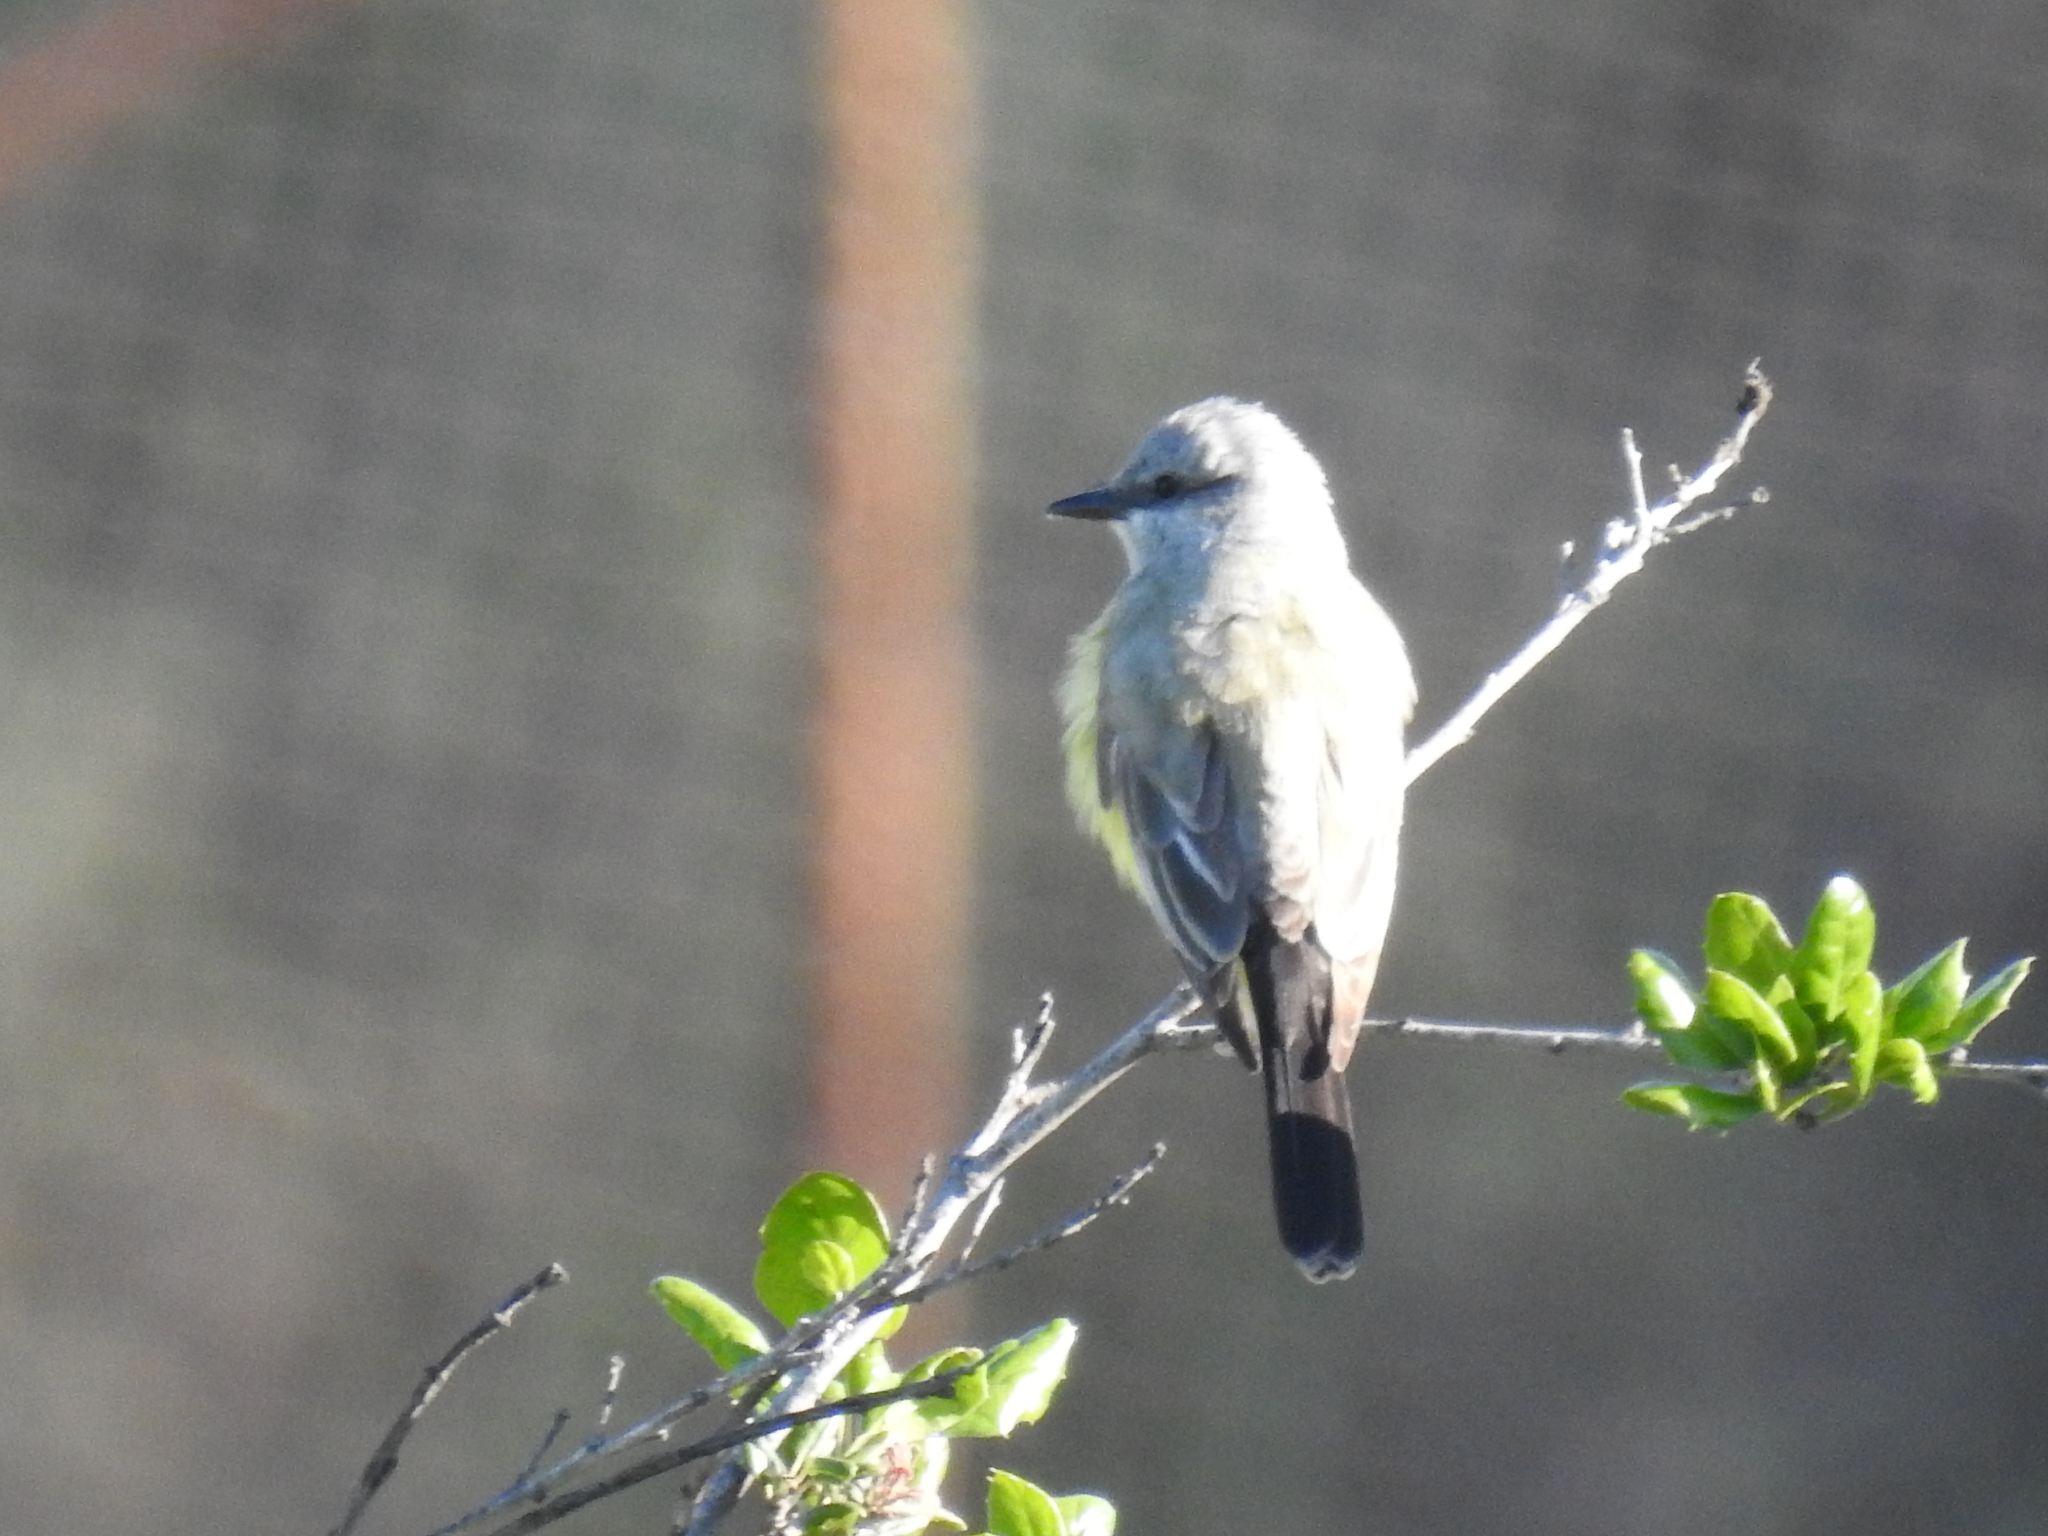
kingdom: Animalia
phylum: Chordata
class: Aves
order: Passeriformes
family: Tyrannidae
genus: Tyrannus
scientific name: Tyrannus vociferans
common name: Cassin's kingbird
